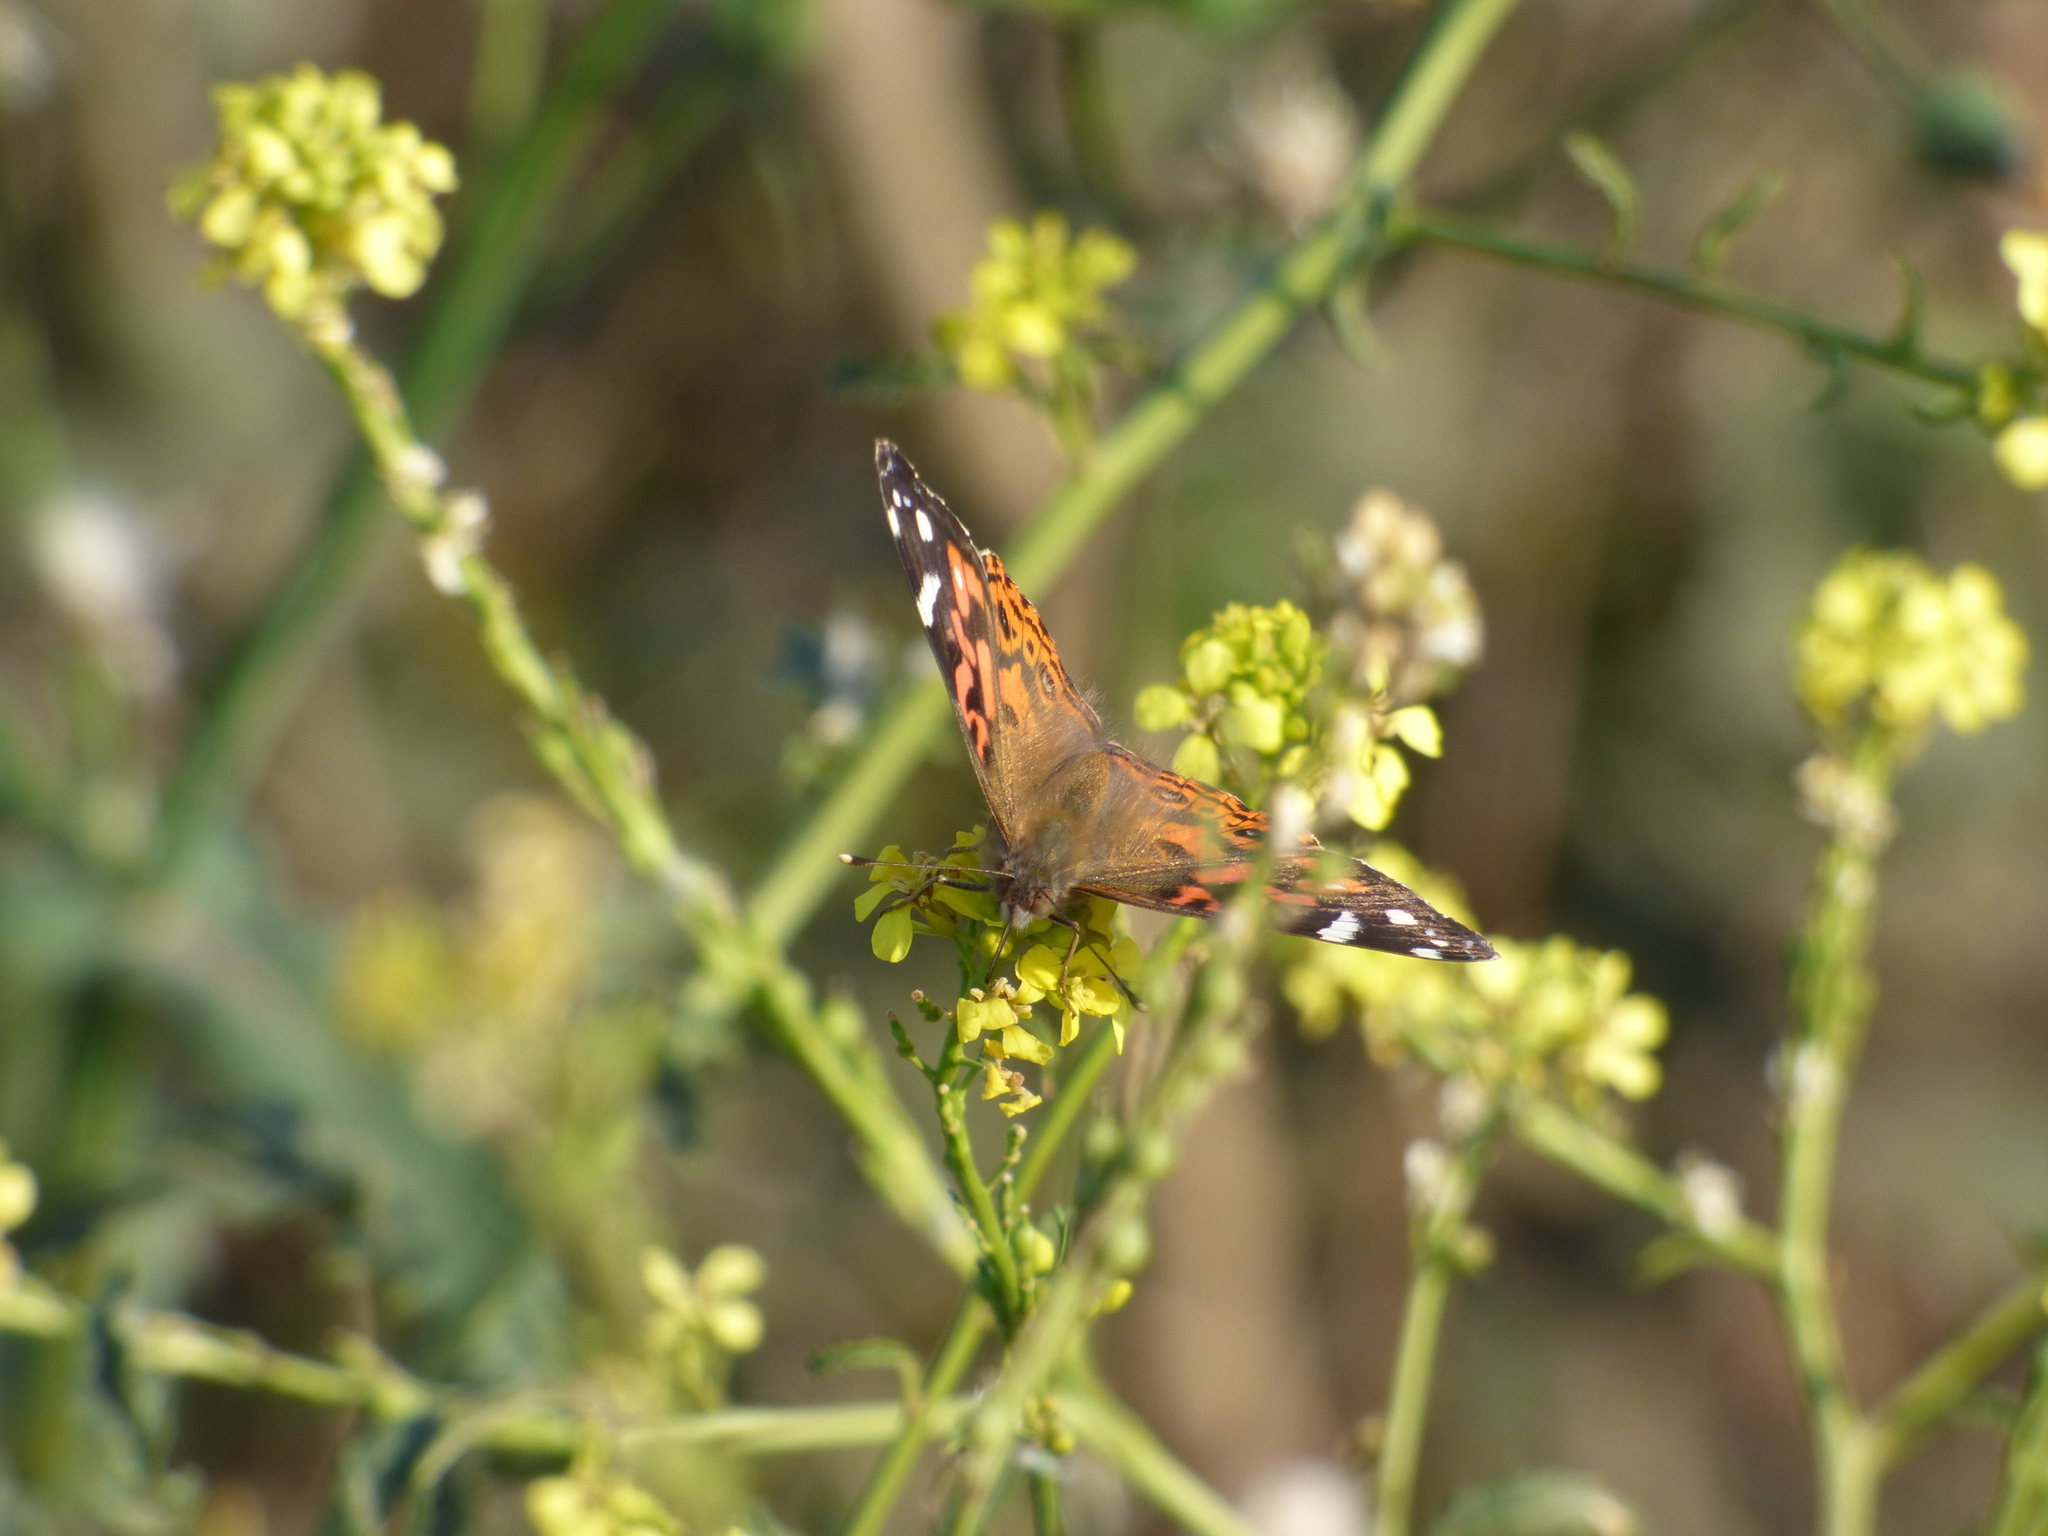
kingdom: Animalia
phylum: Arthropoda
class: Insecta
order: Lepidoptera
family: Nymphalidae
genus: Vanessa
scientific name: Vanessa braziliensis
